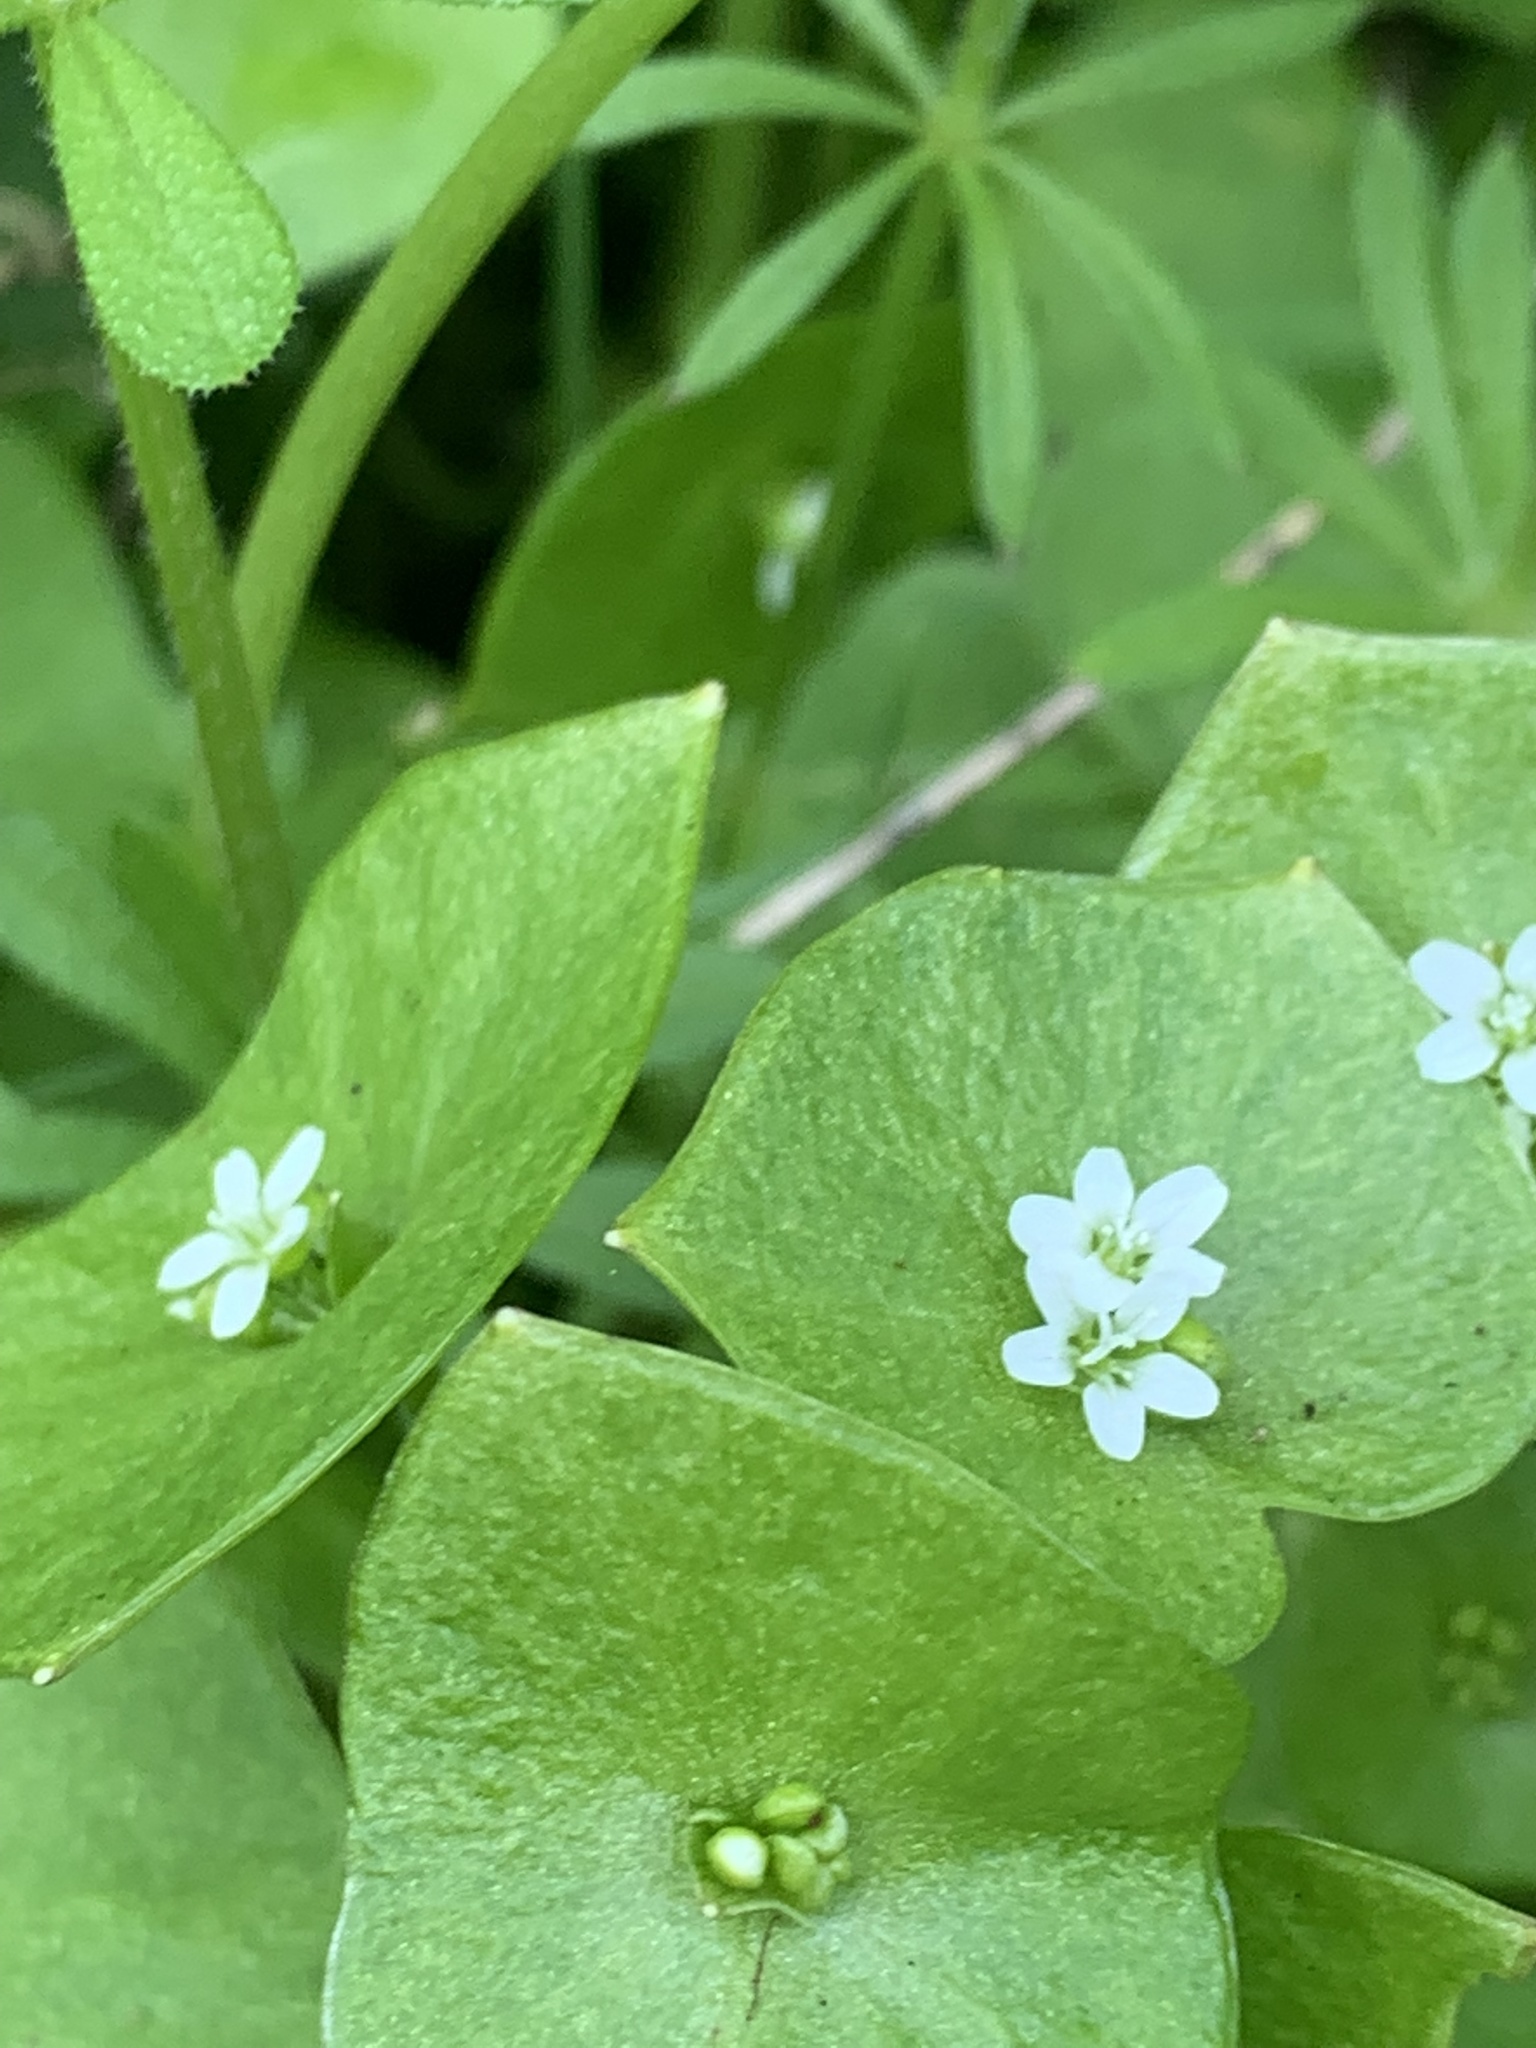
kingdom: Plantae
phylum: Tracheophyta
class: Magnoliopsida
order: Caryophyllales
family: Montiaceae
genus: Claytonia
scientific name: Claytonia perfoliata
